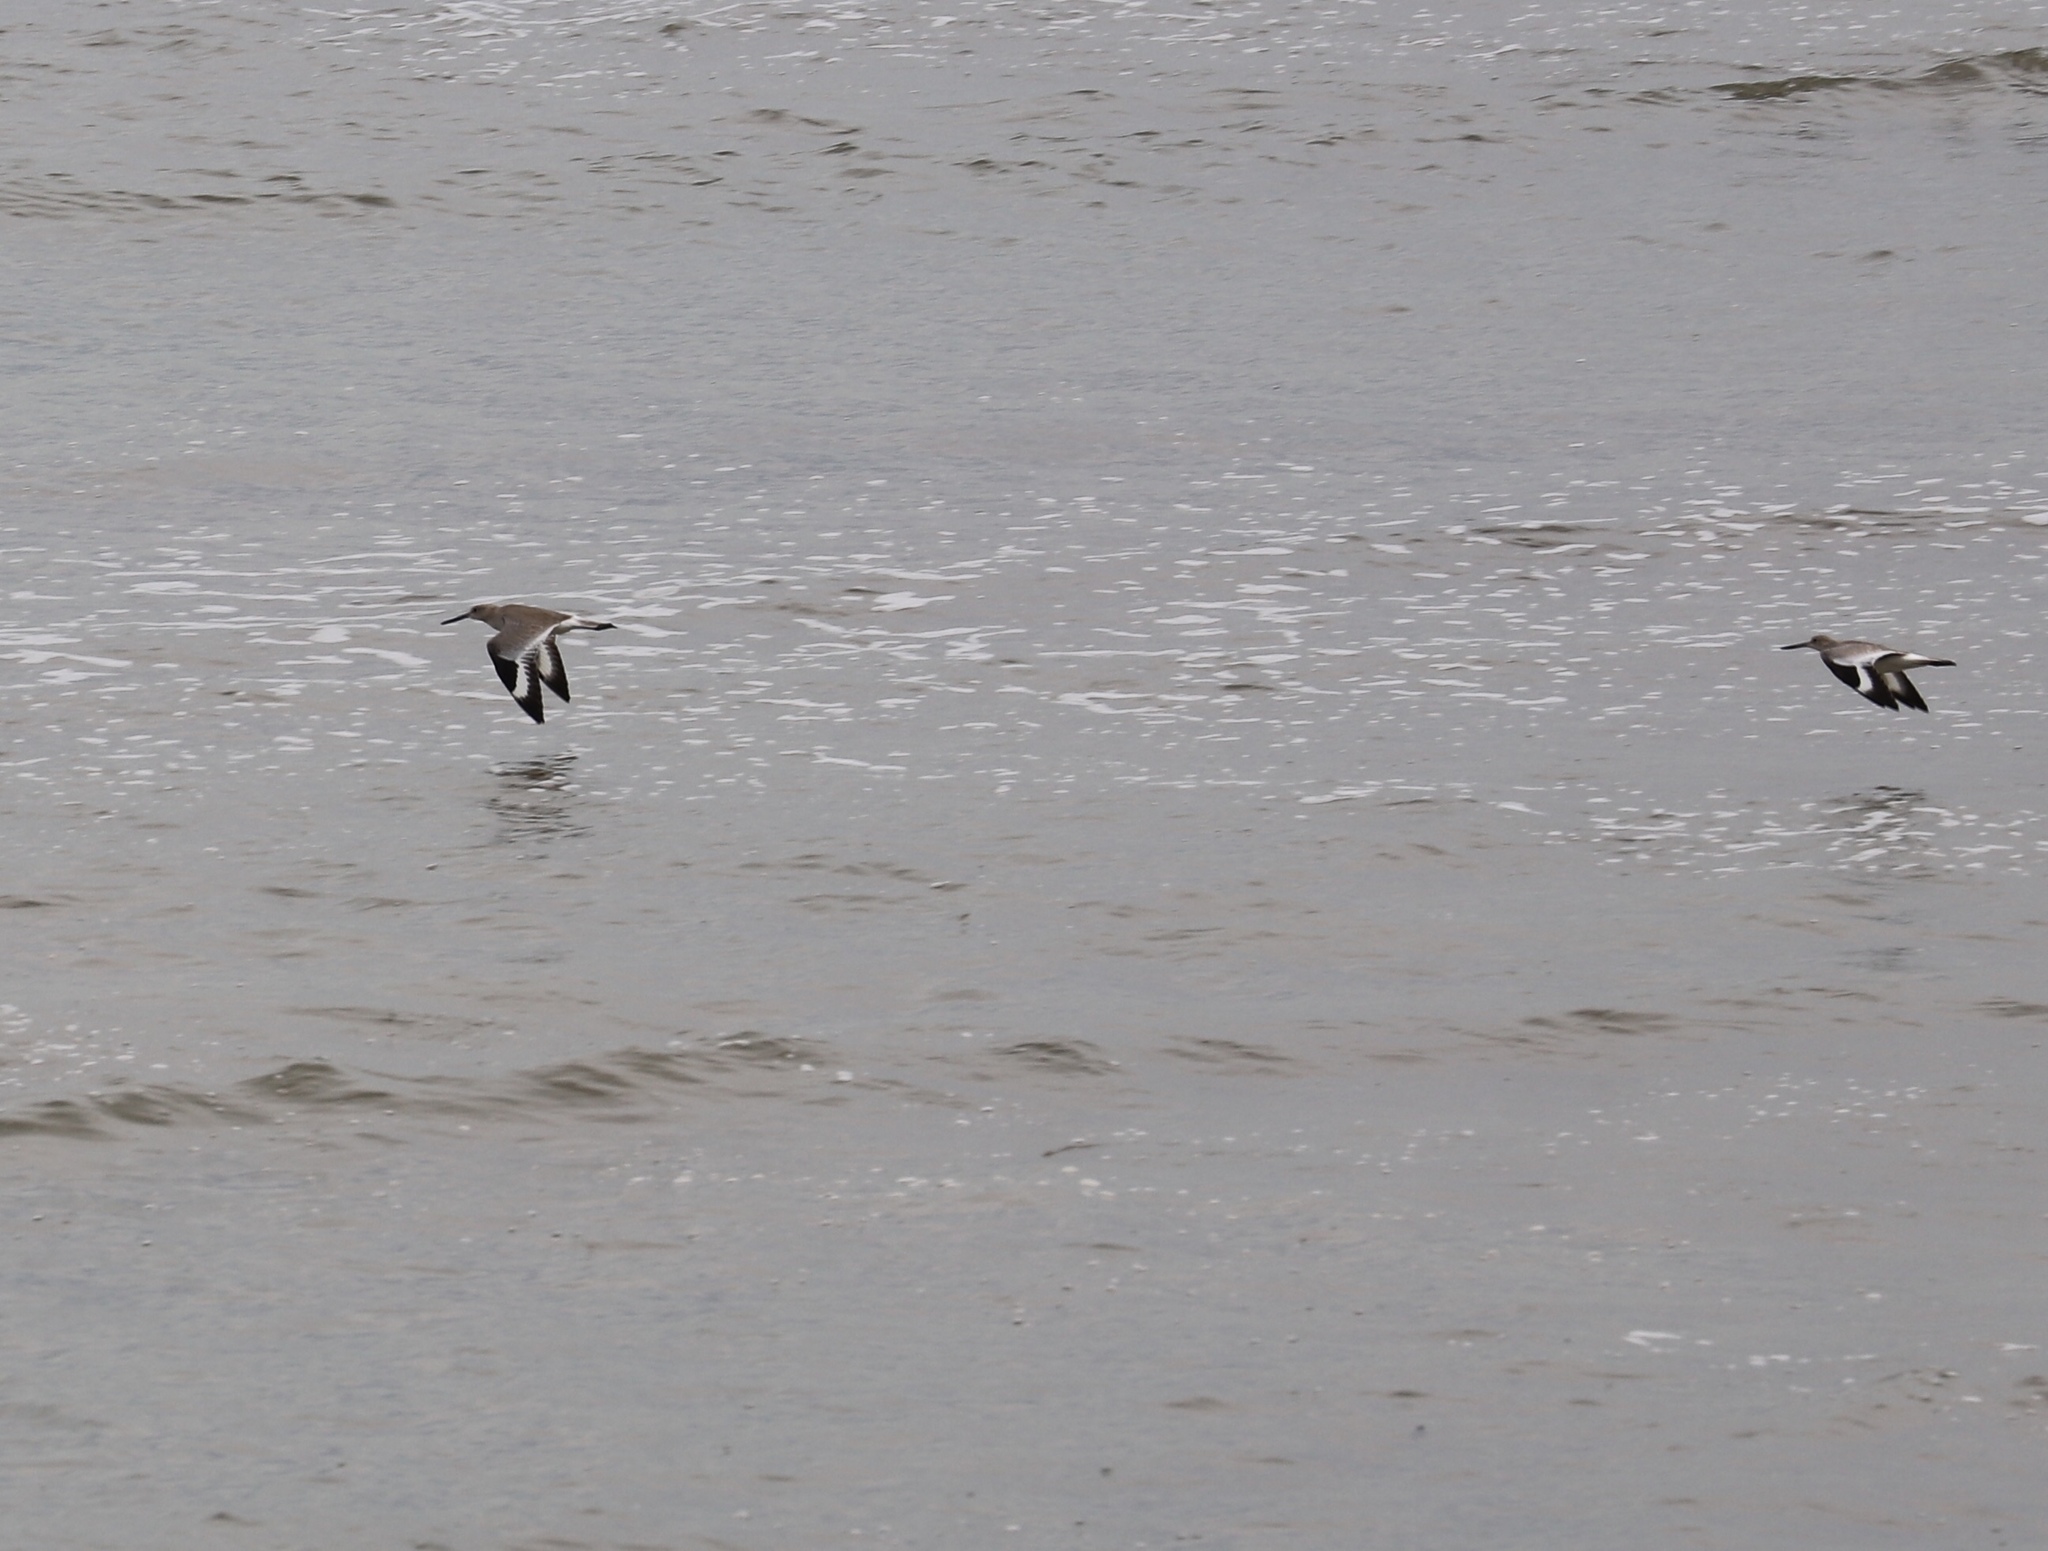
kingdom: Animalia
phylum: Chordata
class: Aves
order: Charadriiformes
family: Scolopacidae
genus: Tringa
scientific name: Tringa semipalmata
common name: Willet
